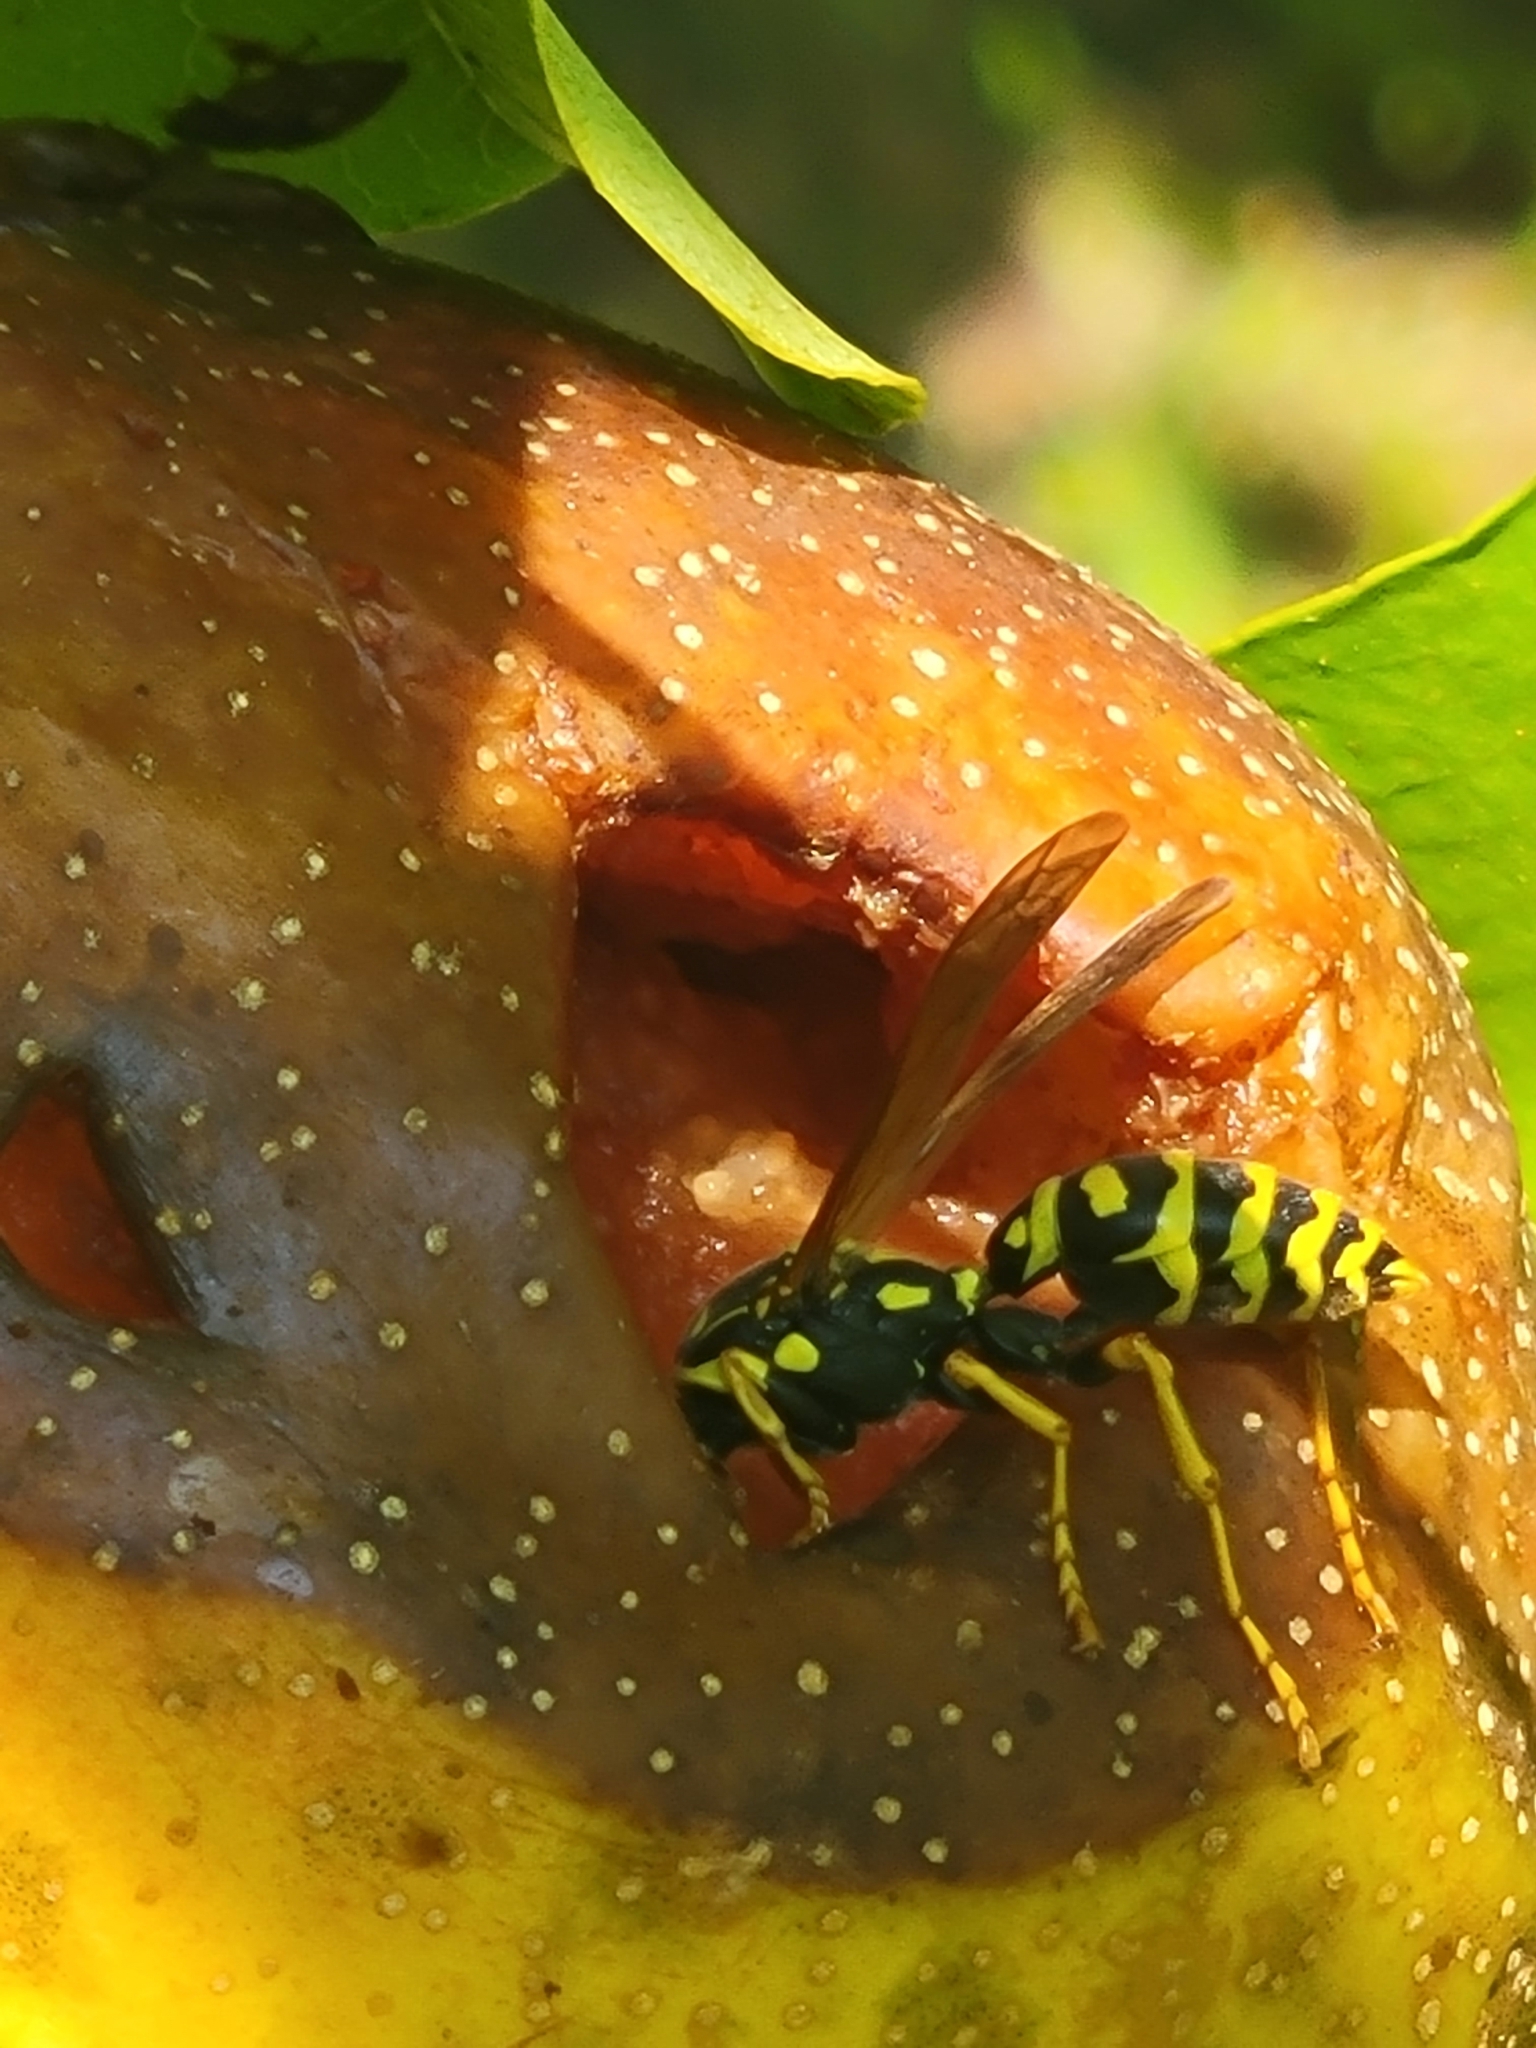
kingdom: Animalia
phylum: Arthropoda
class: Insecta
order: Hymenoptera
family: Eumenidae
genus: Polistes
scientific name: Polistes dominula
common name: Paper wasp
